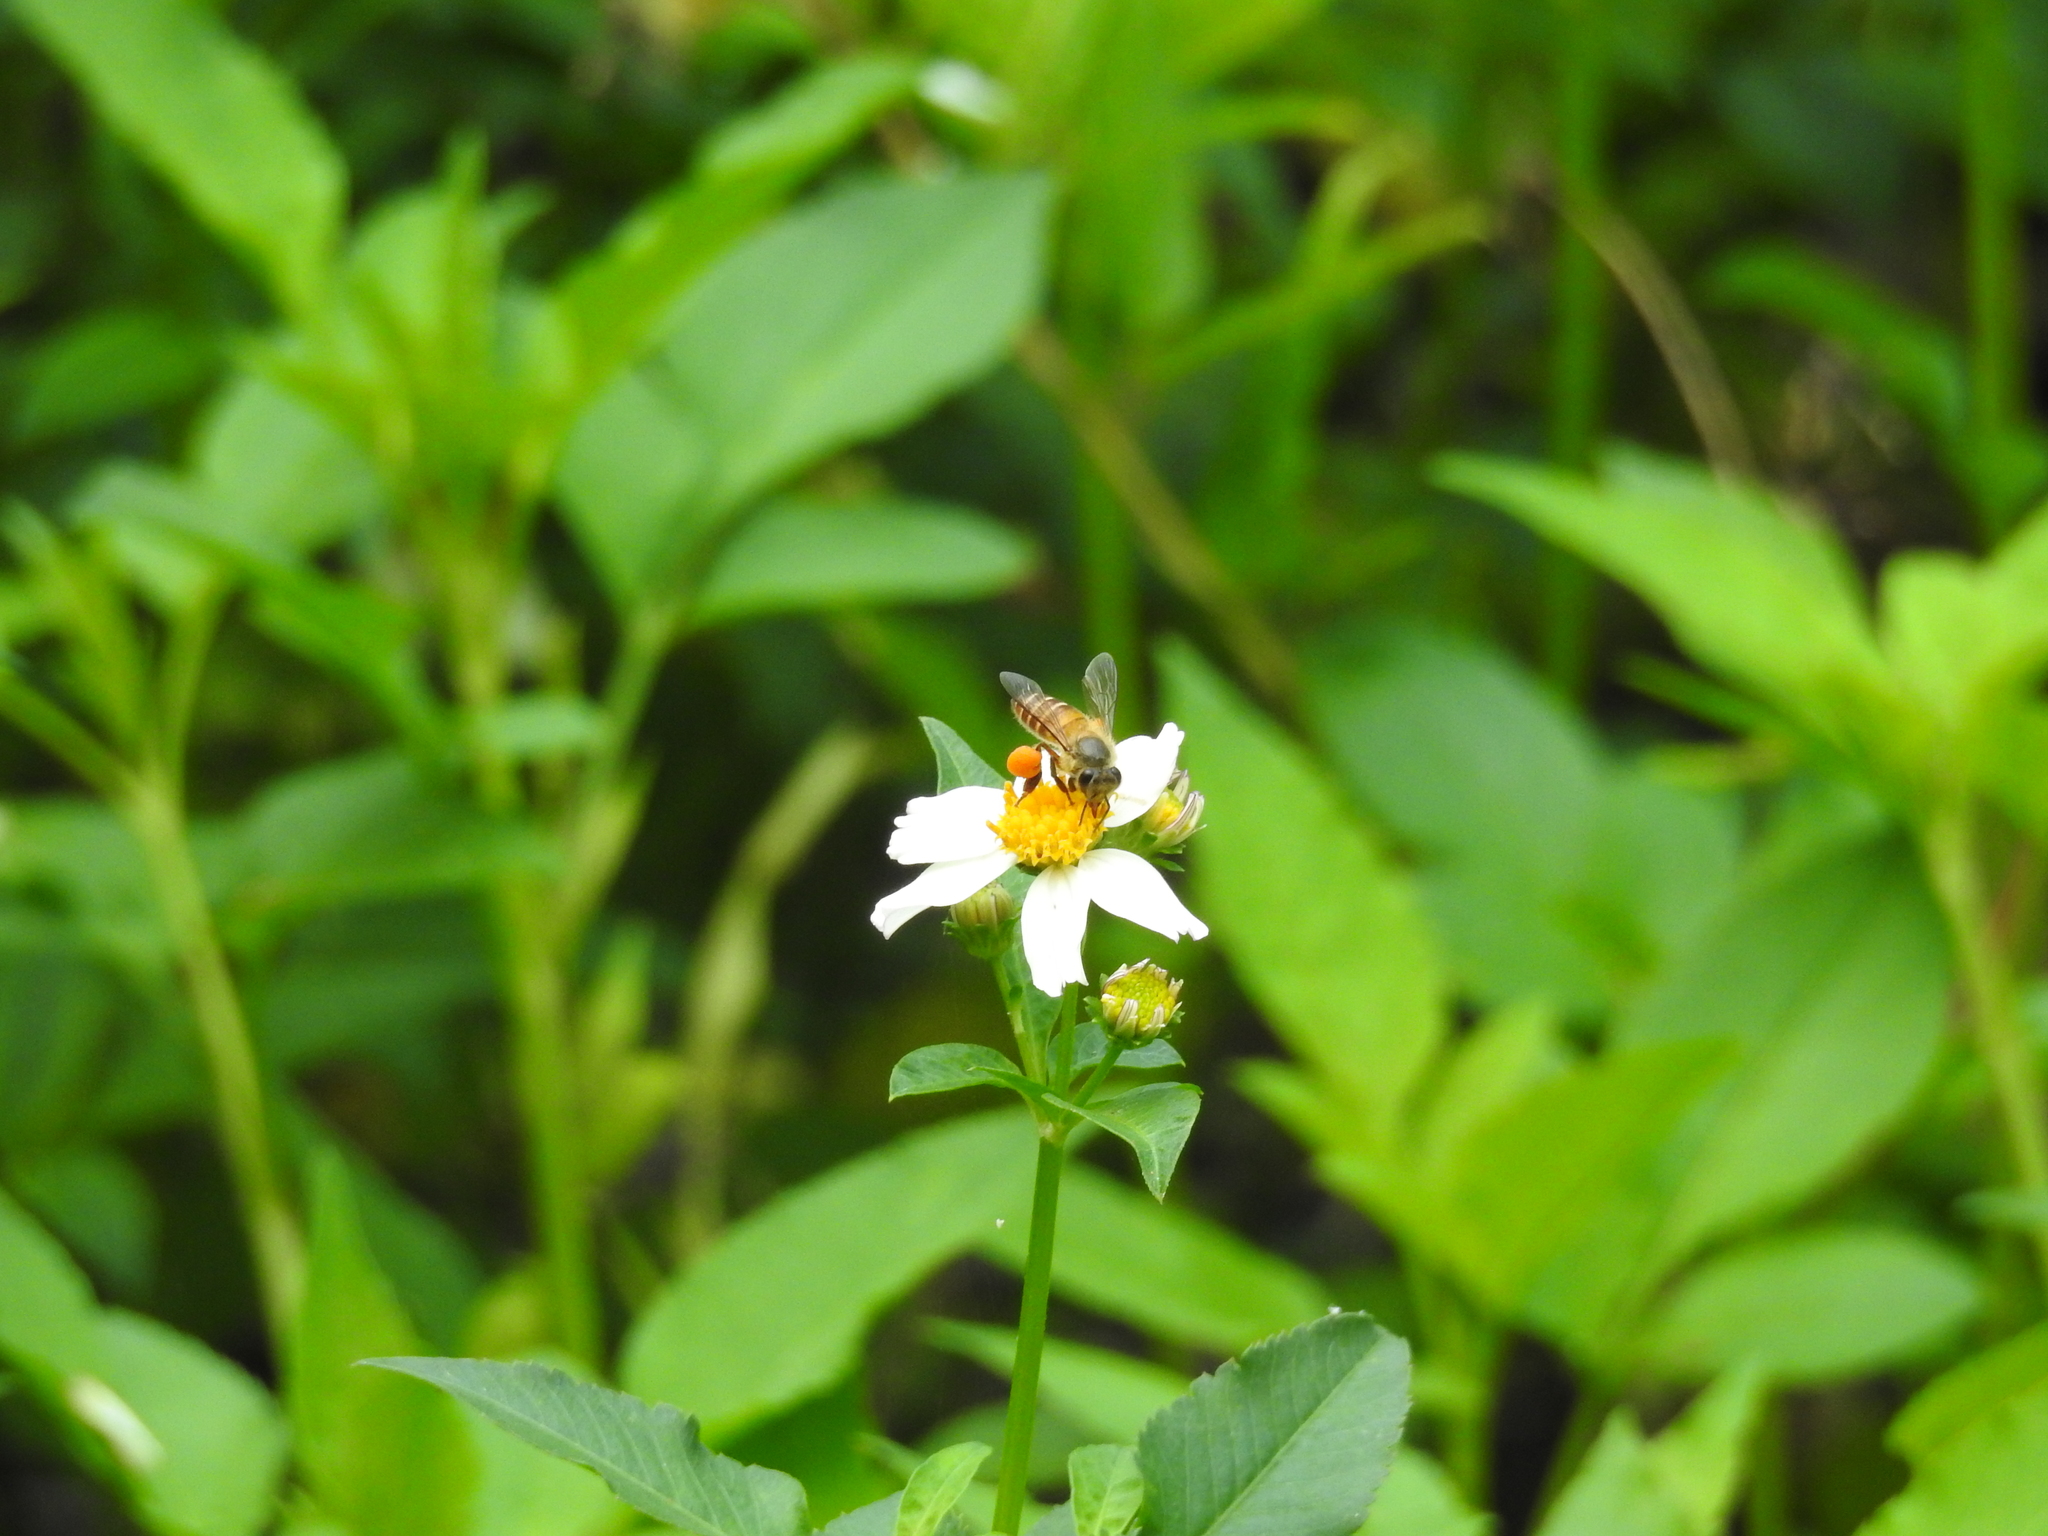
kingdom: Animalia
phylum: Arthropoda
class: Insecta
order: Hymenoptera
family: Apidae
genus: Apis
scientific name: Apis cerana
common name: Honey bee
